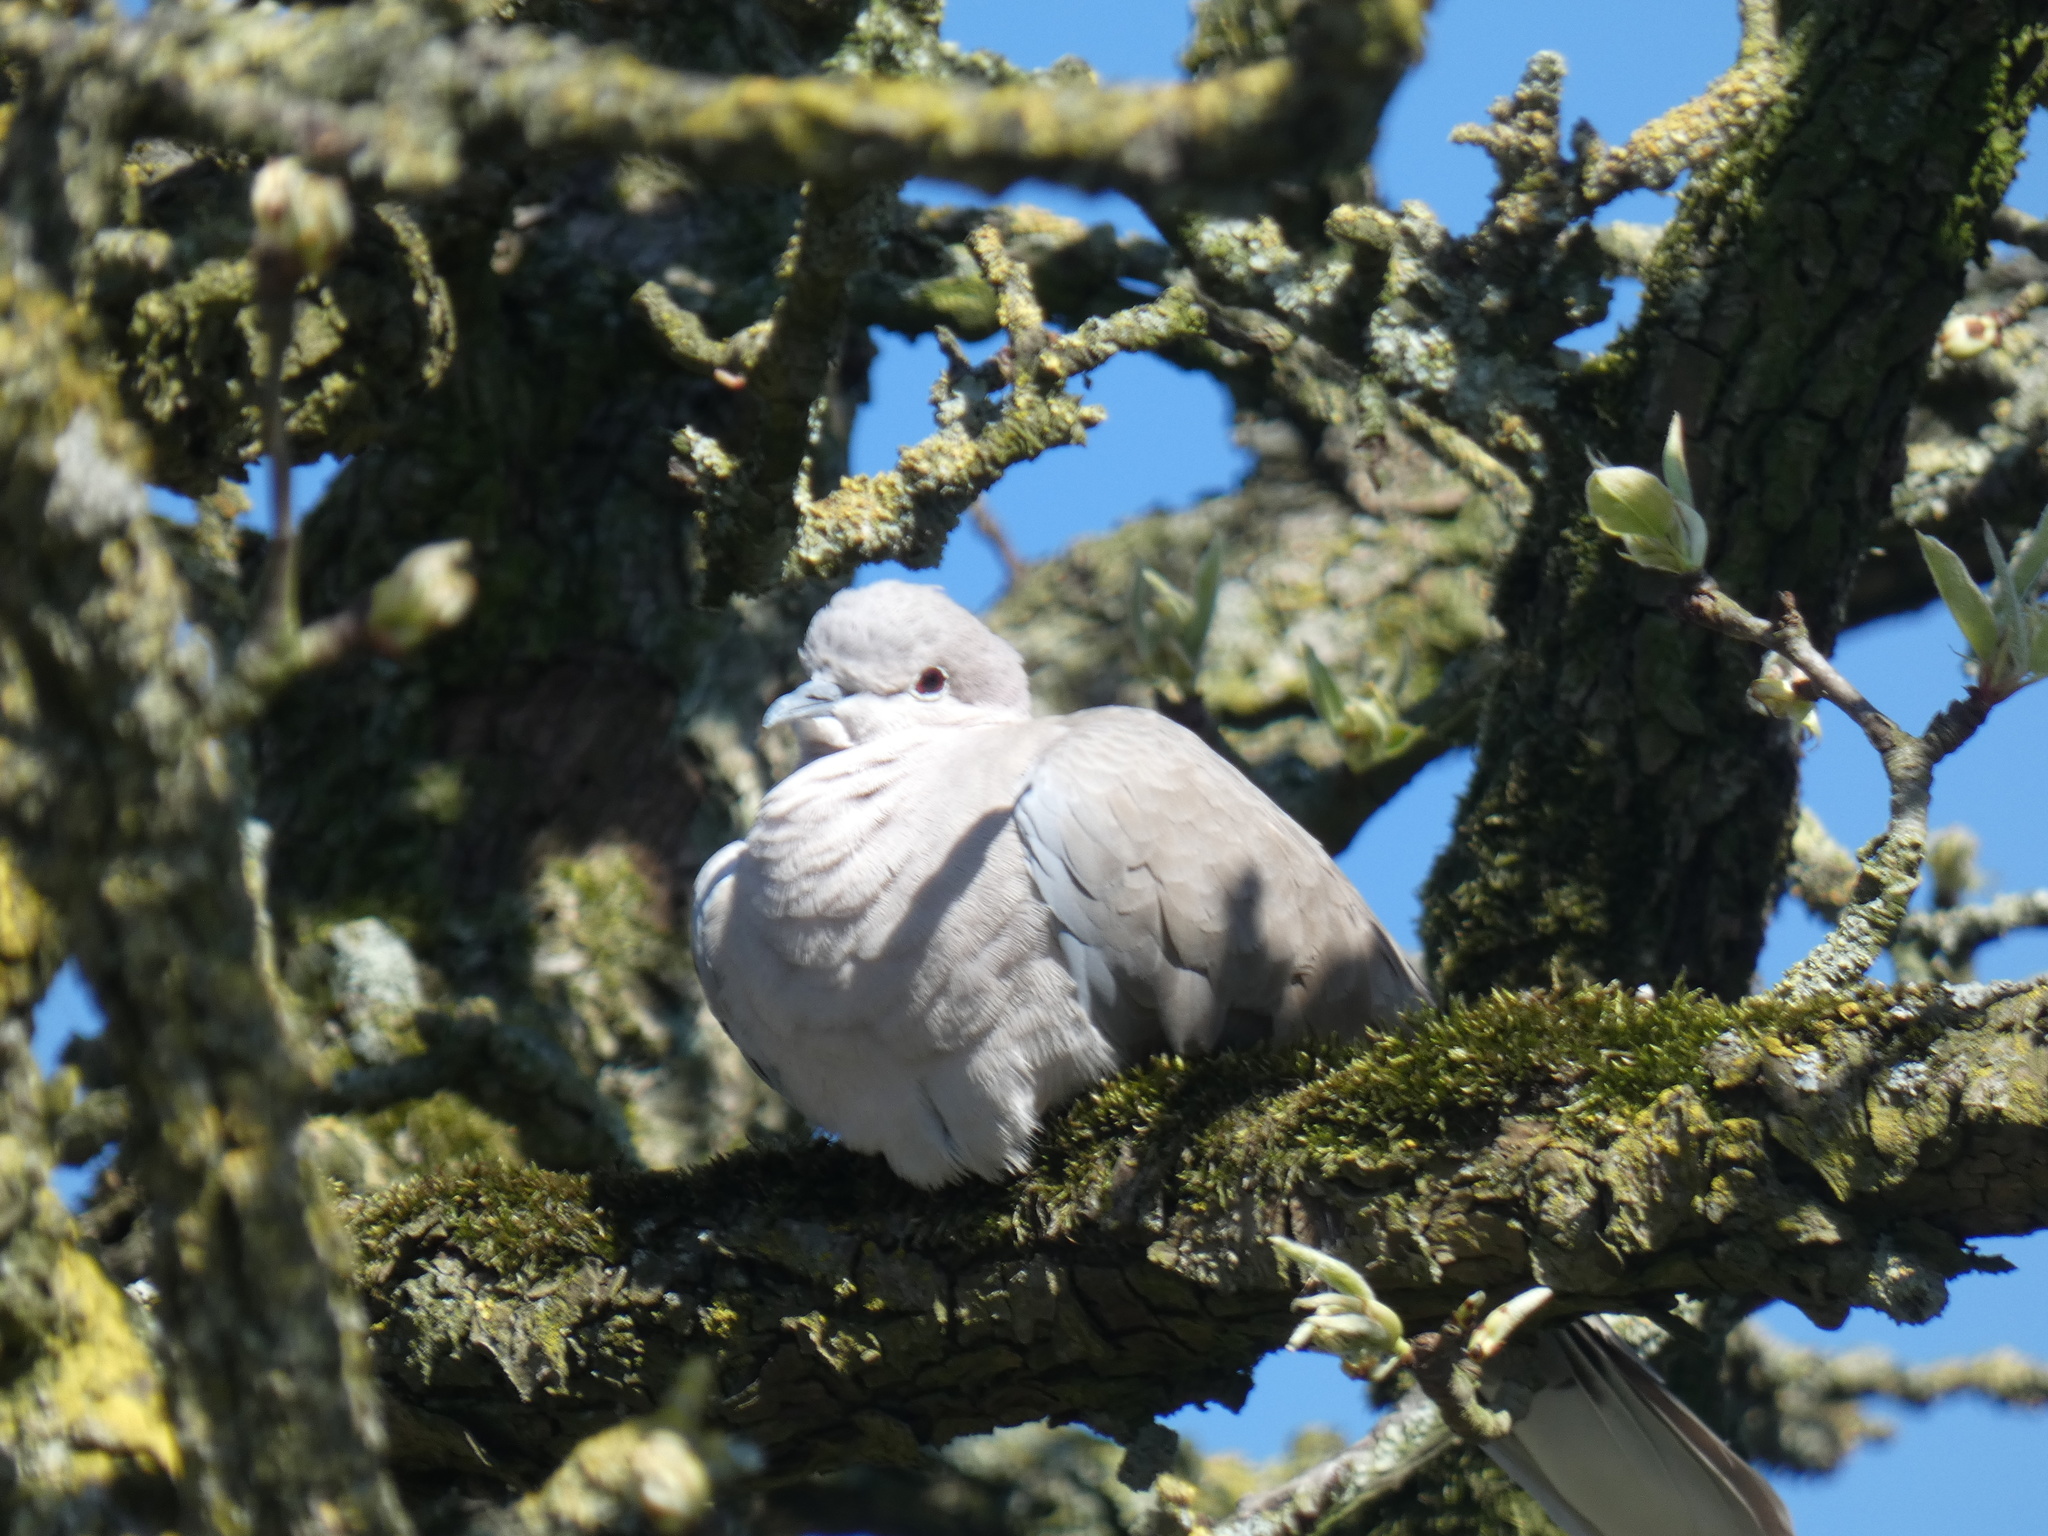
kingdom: Animalia
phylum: Chordata
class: Aves
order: Columbiformes
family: Columbidae
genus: Streptopelia
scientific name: Streptopelia decaocto
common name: Eurasian collared dove
